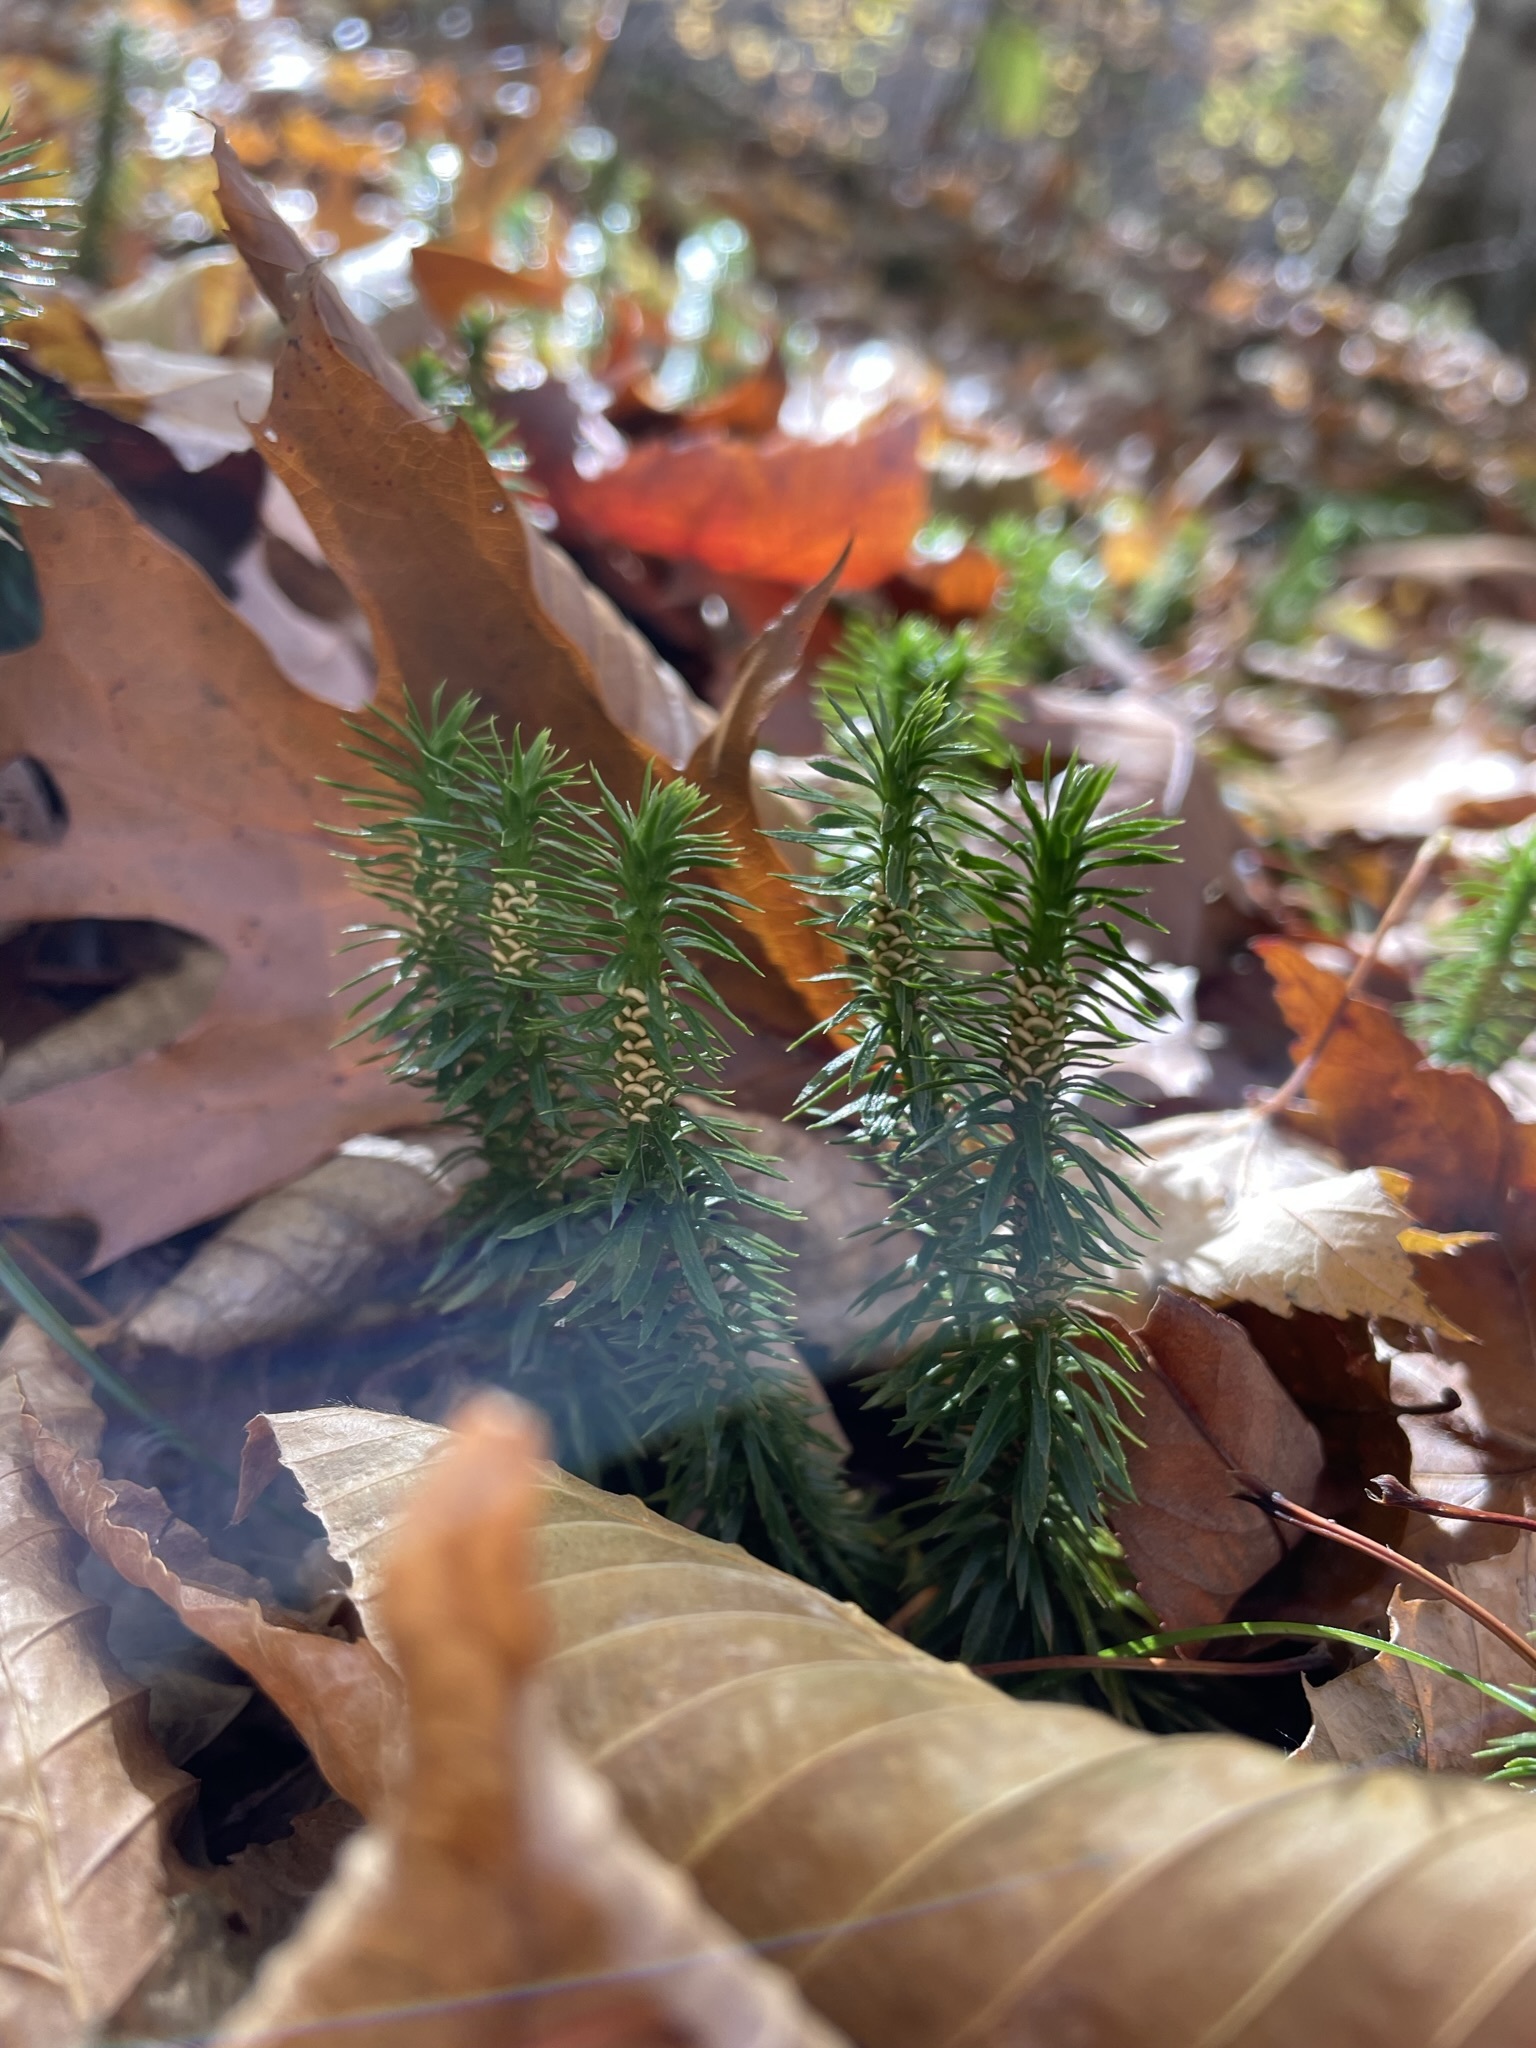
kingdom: Plantae
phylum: Tracheophyta
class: Lycopodiopsida
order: Lycopodiales
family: Lycopodiaceae
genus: Huperzia
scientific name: Huperzia lucidula
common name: Shining clubmoss
